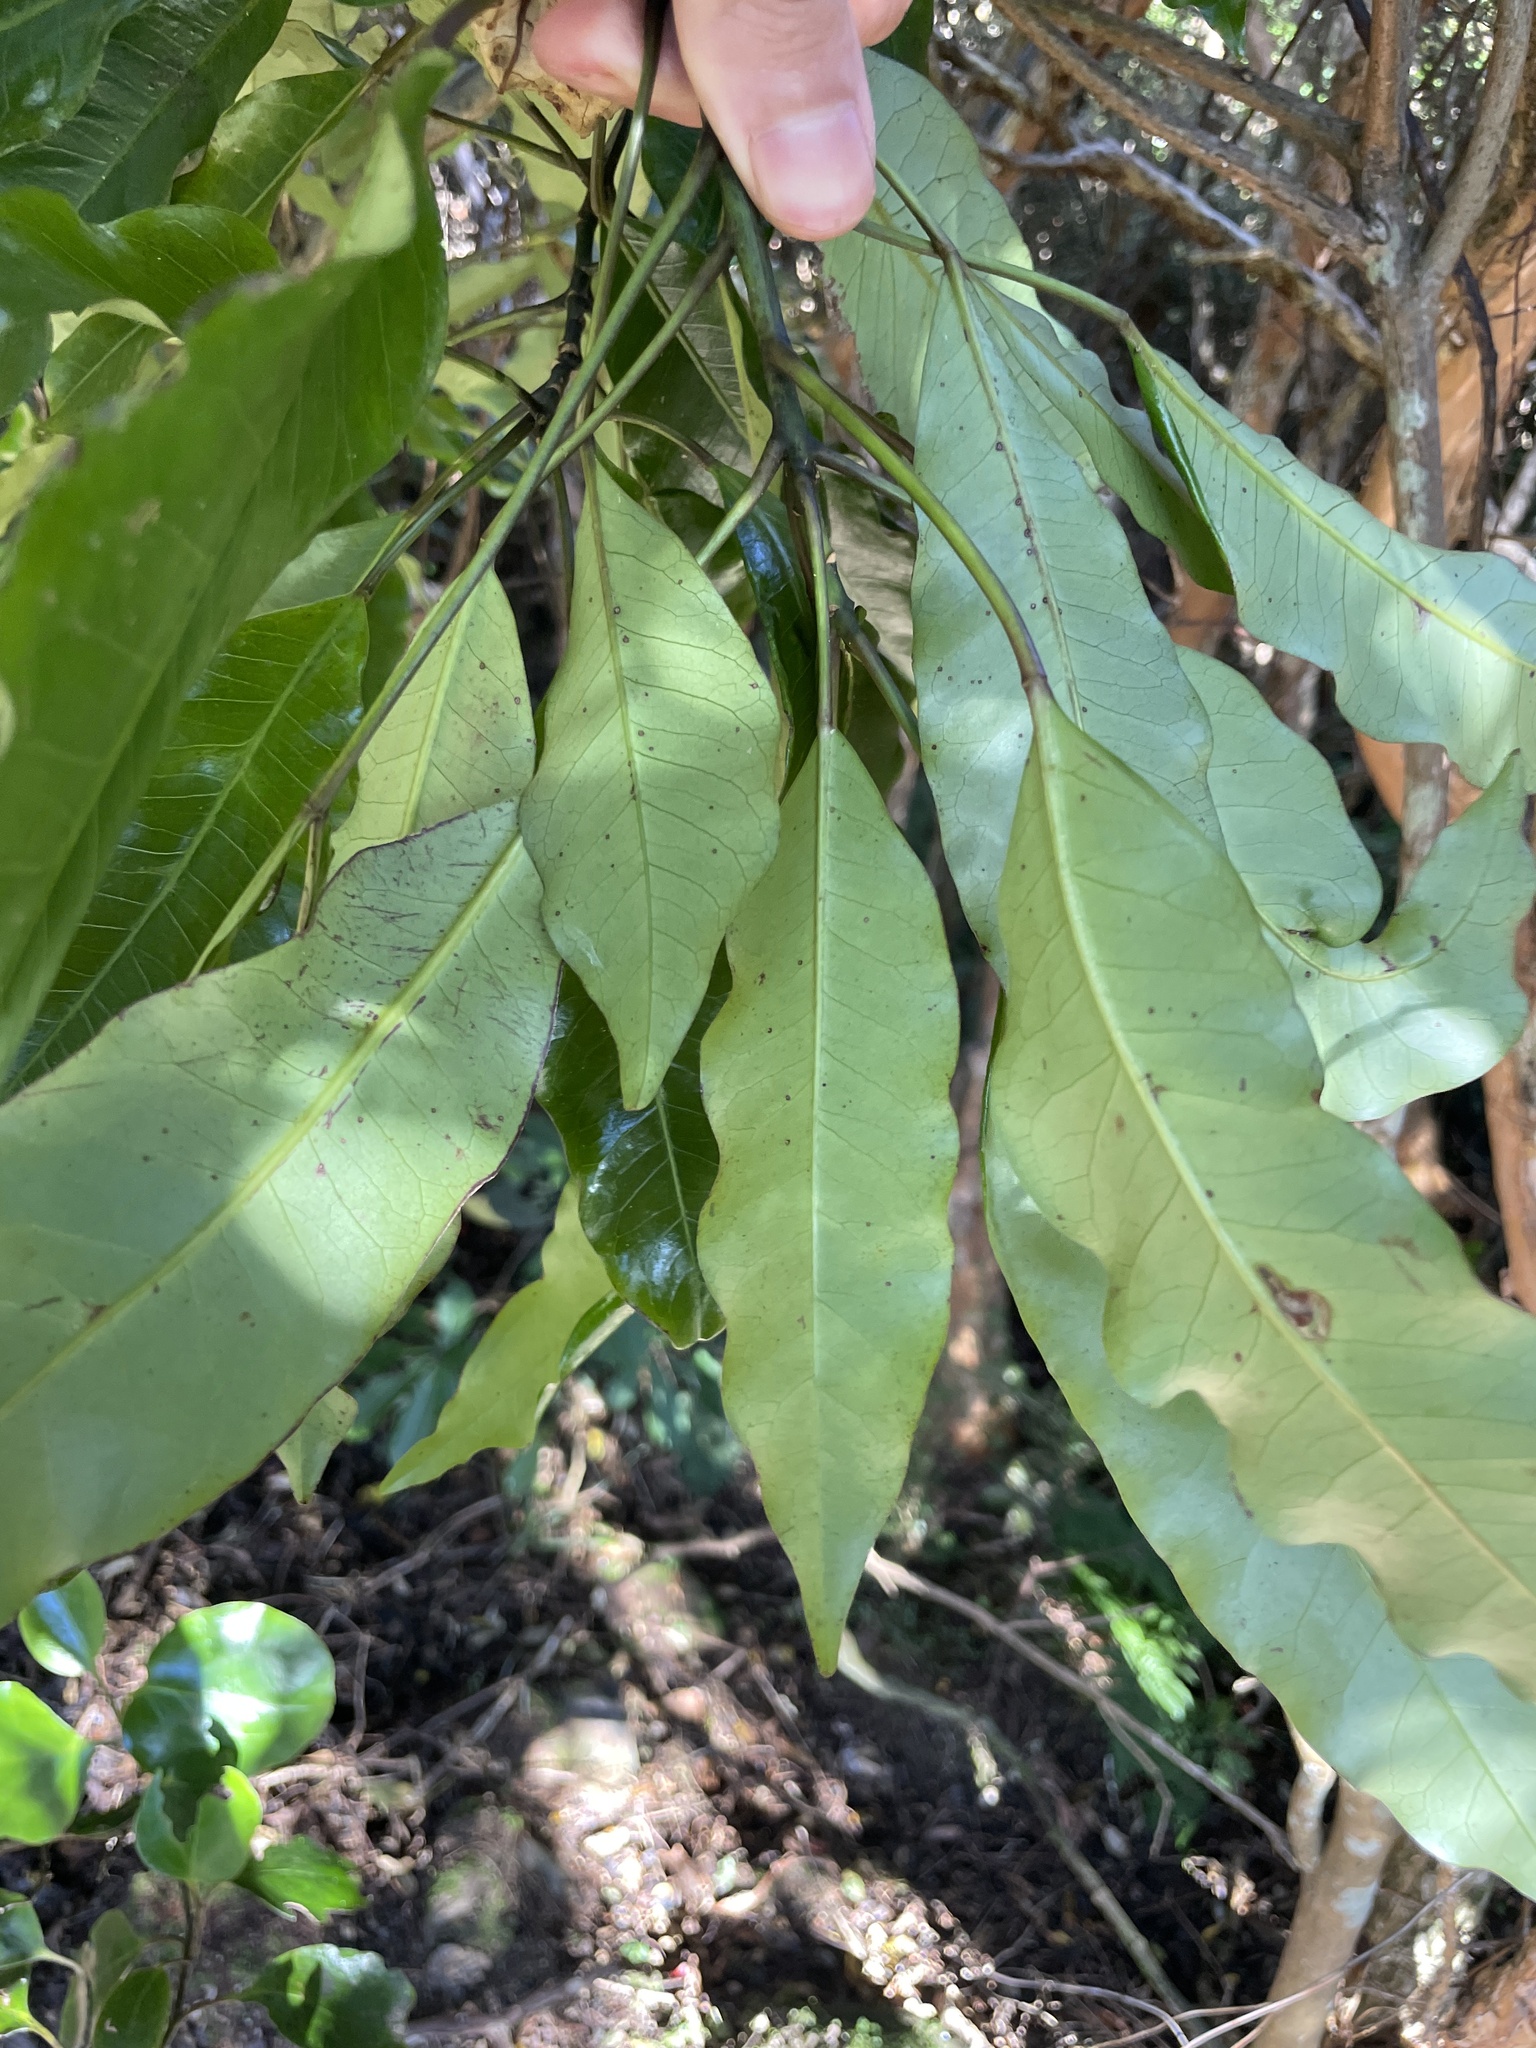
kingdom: Plantae
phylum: Tracheophyta
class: Magnoliopsida
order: Apiales
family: Araliaceae
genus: Raukaua
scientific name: Raukaua edgerleyi
